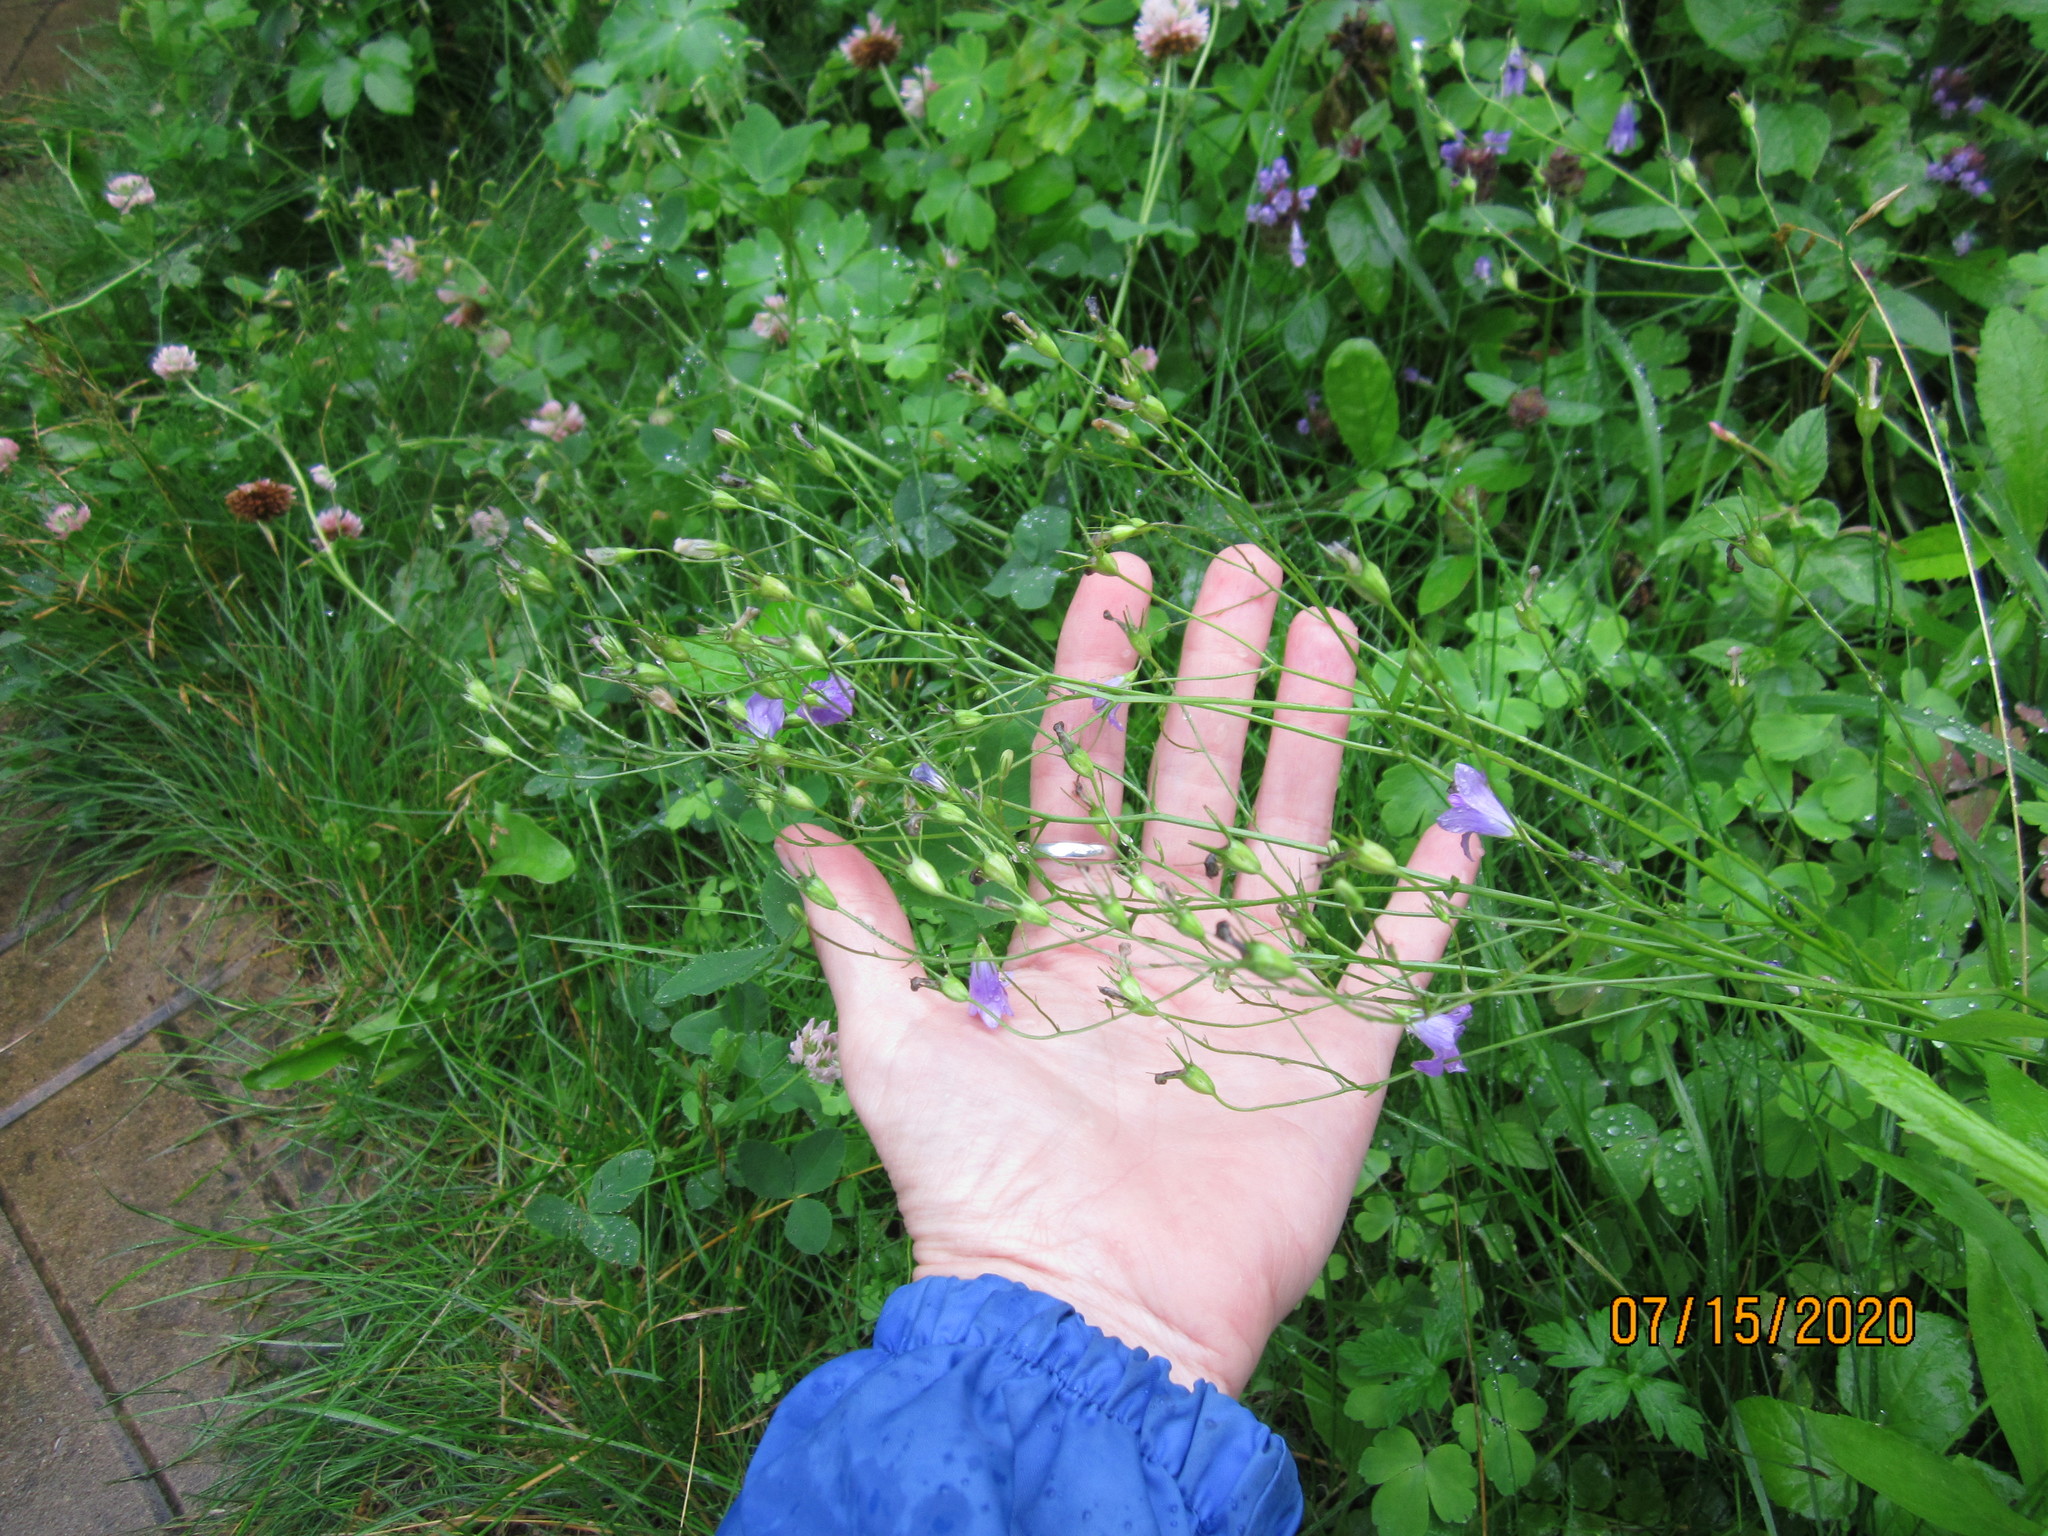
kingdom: Plantae
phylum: Tracheophyta
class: Magnoliopsida
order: Asterales
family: Campanulaceae
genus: Campanula
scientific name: Campanula patula
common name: Spreading bellflower
